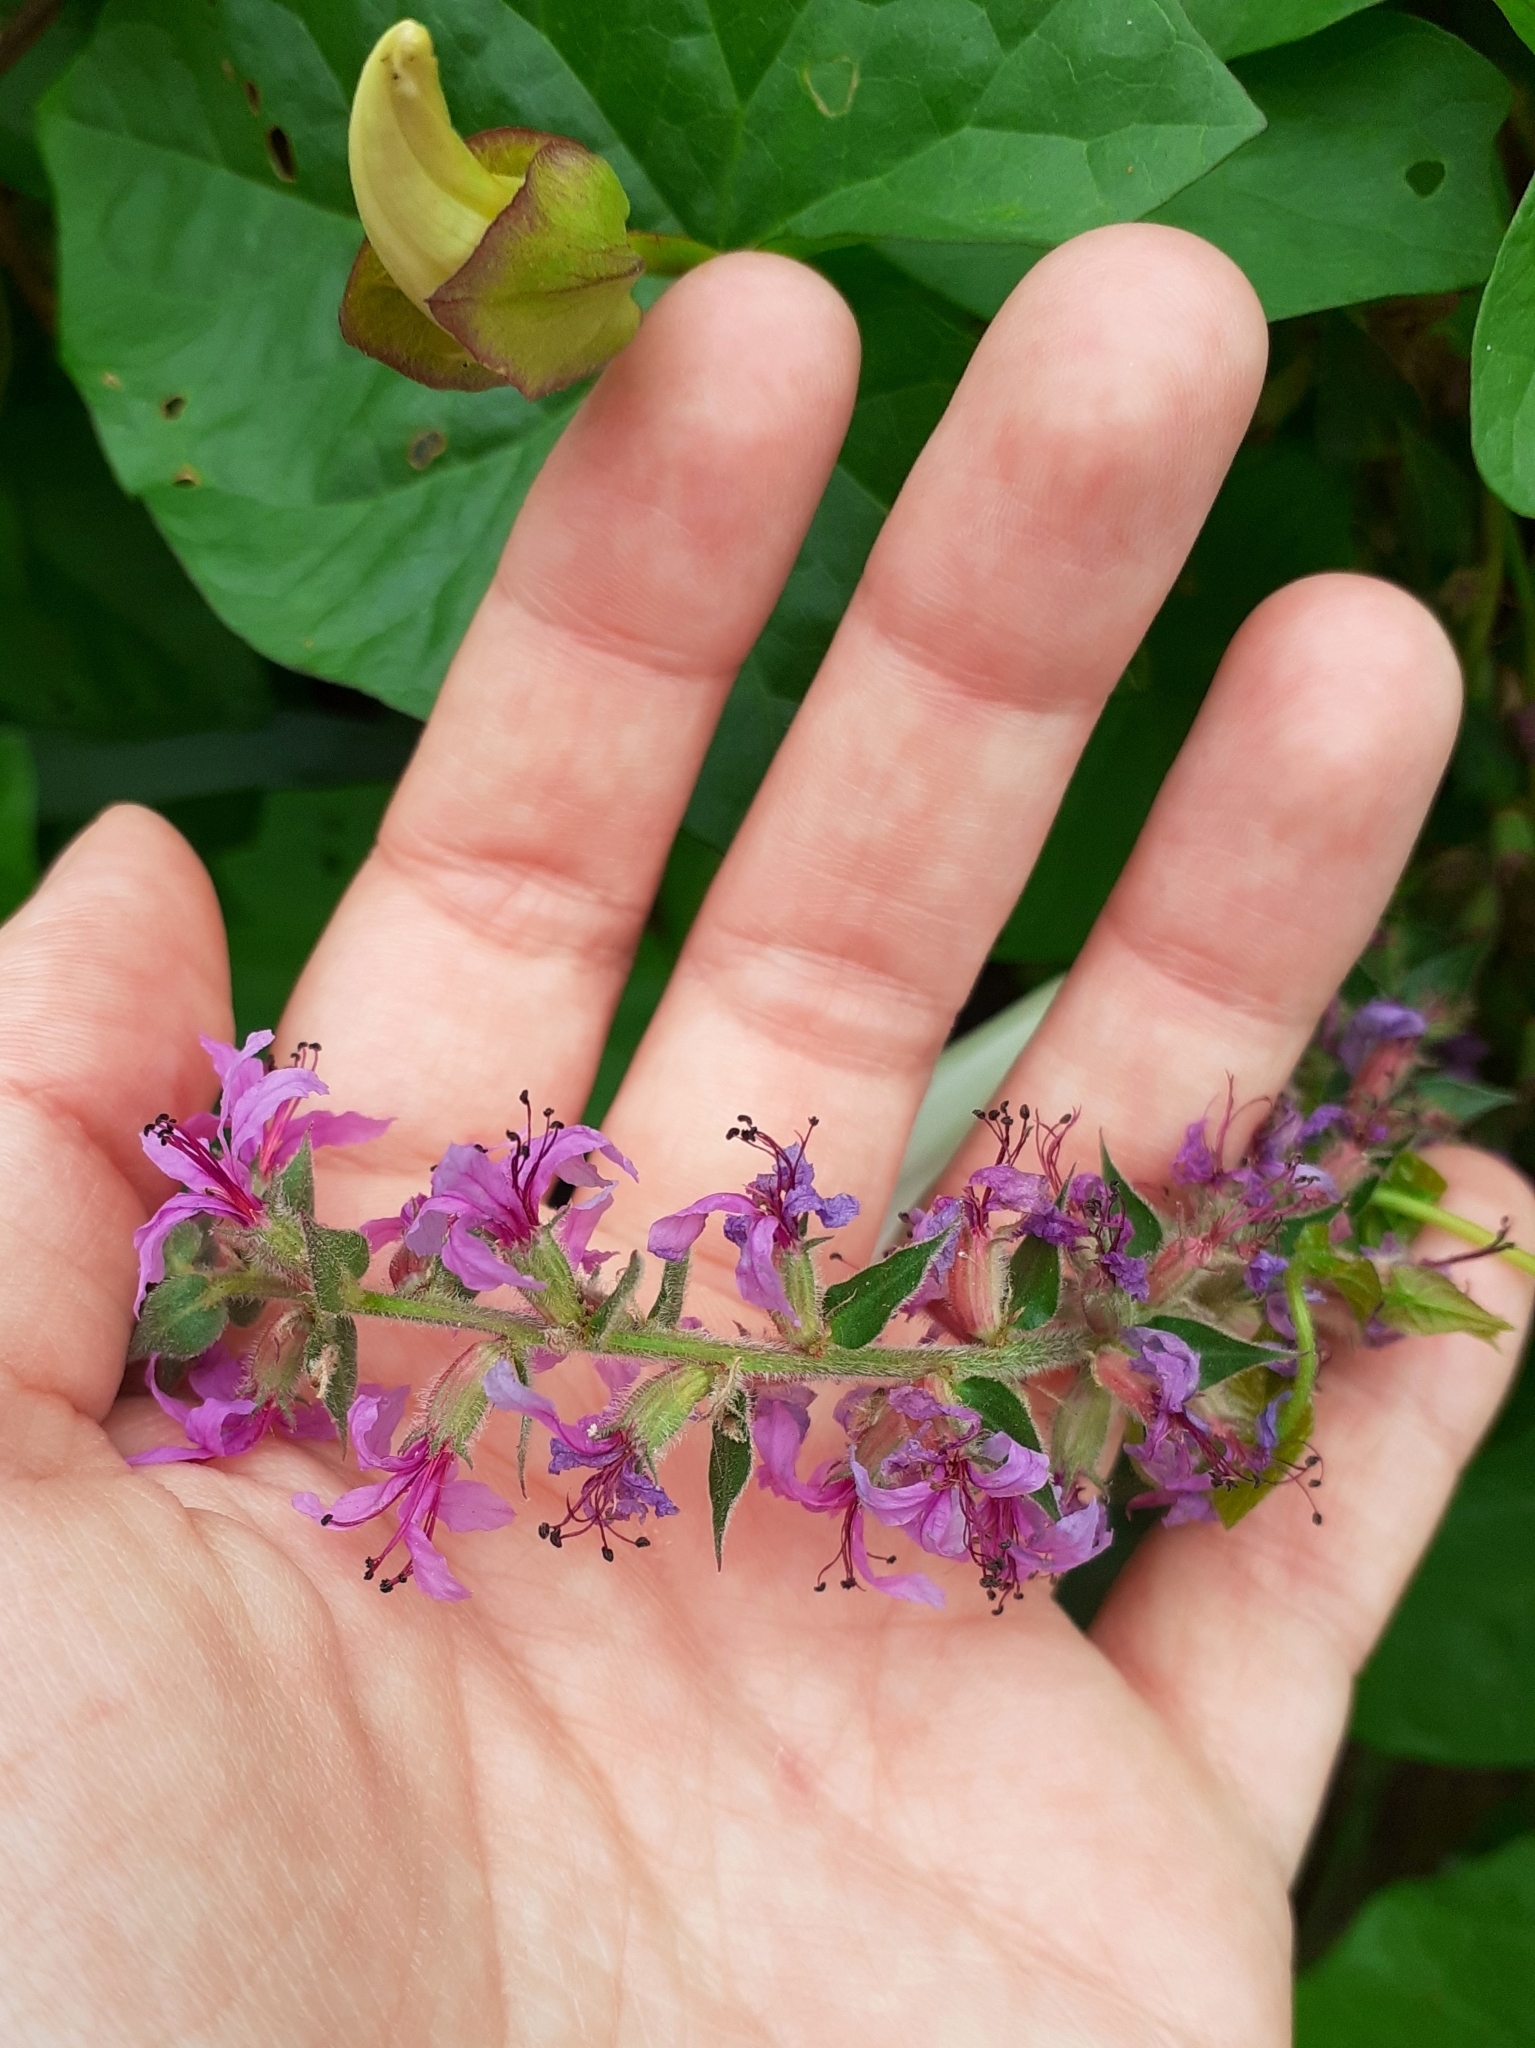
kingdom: Plantae
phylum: Tracheophyta
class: Magnoliopsida
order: Myrtales
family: Lythraceae
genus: Lythrum
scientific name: Lythrum salicaria
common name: Purple loosestrife
